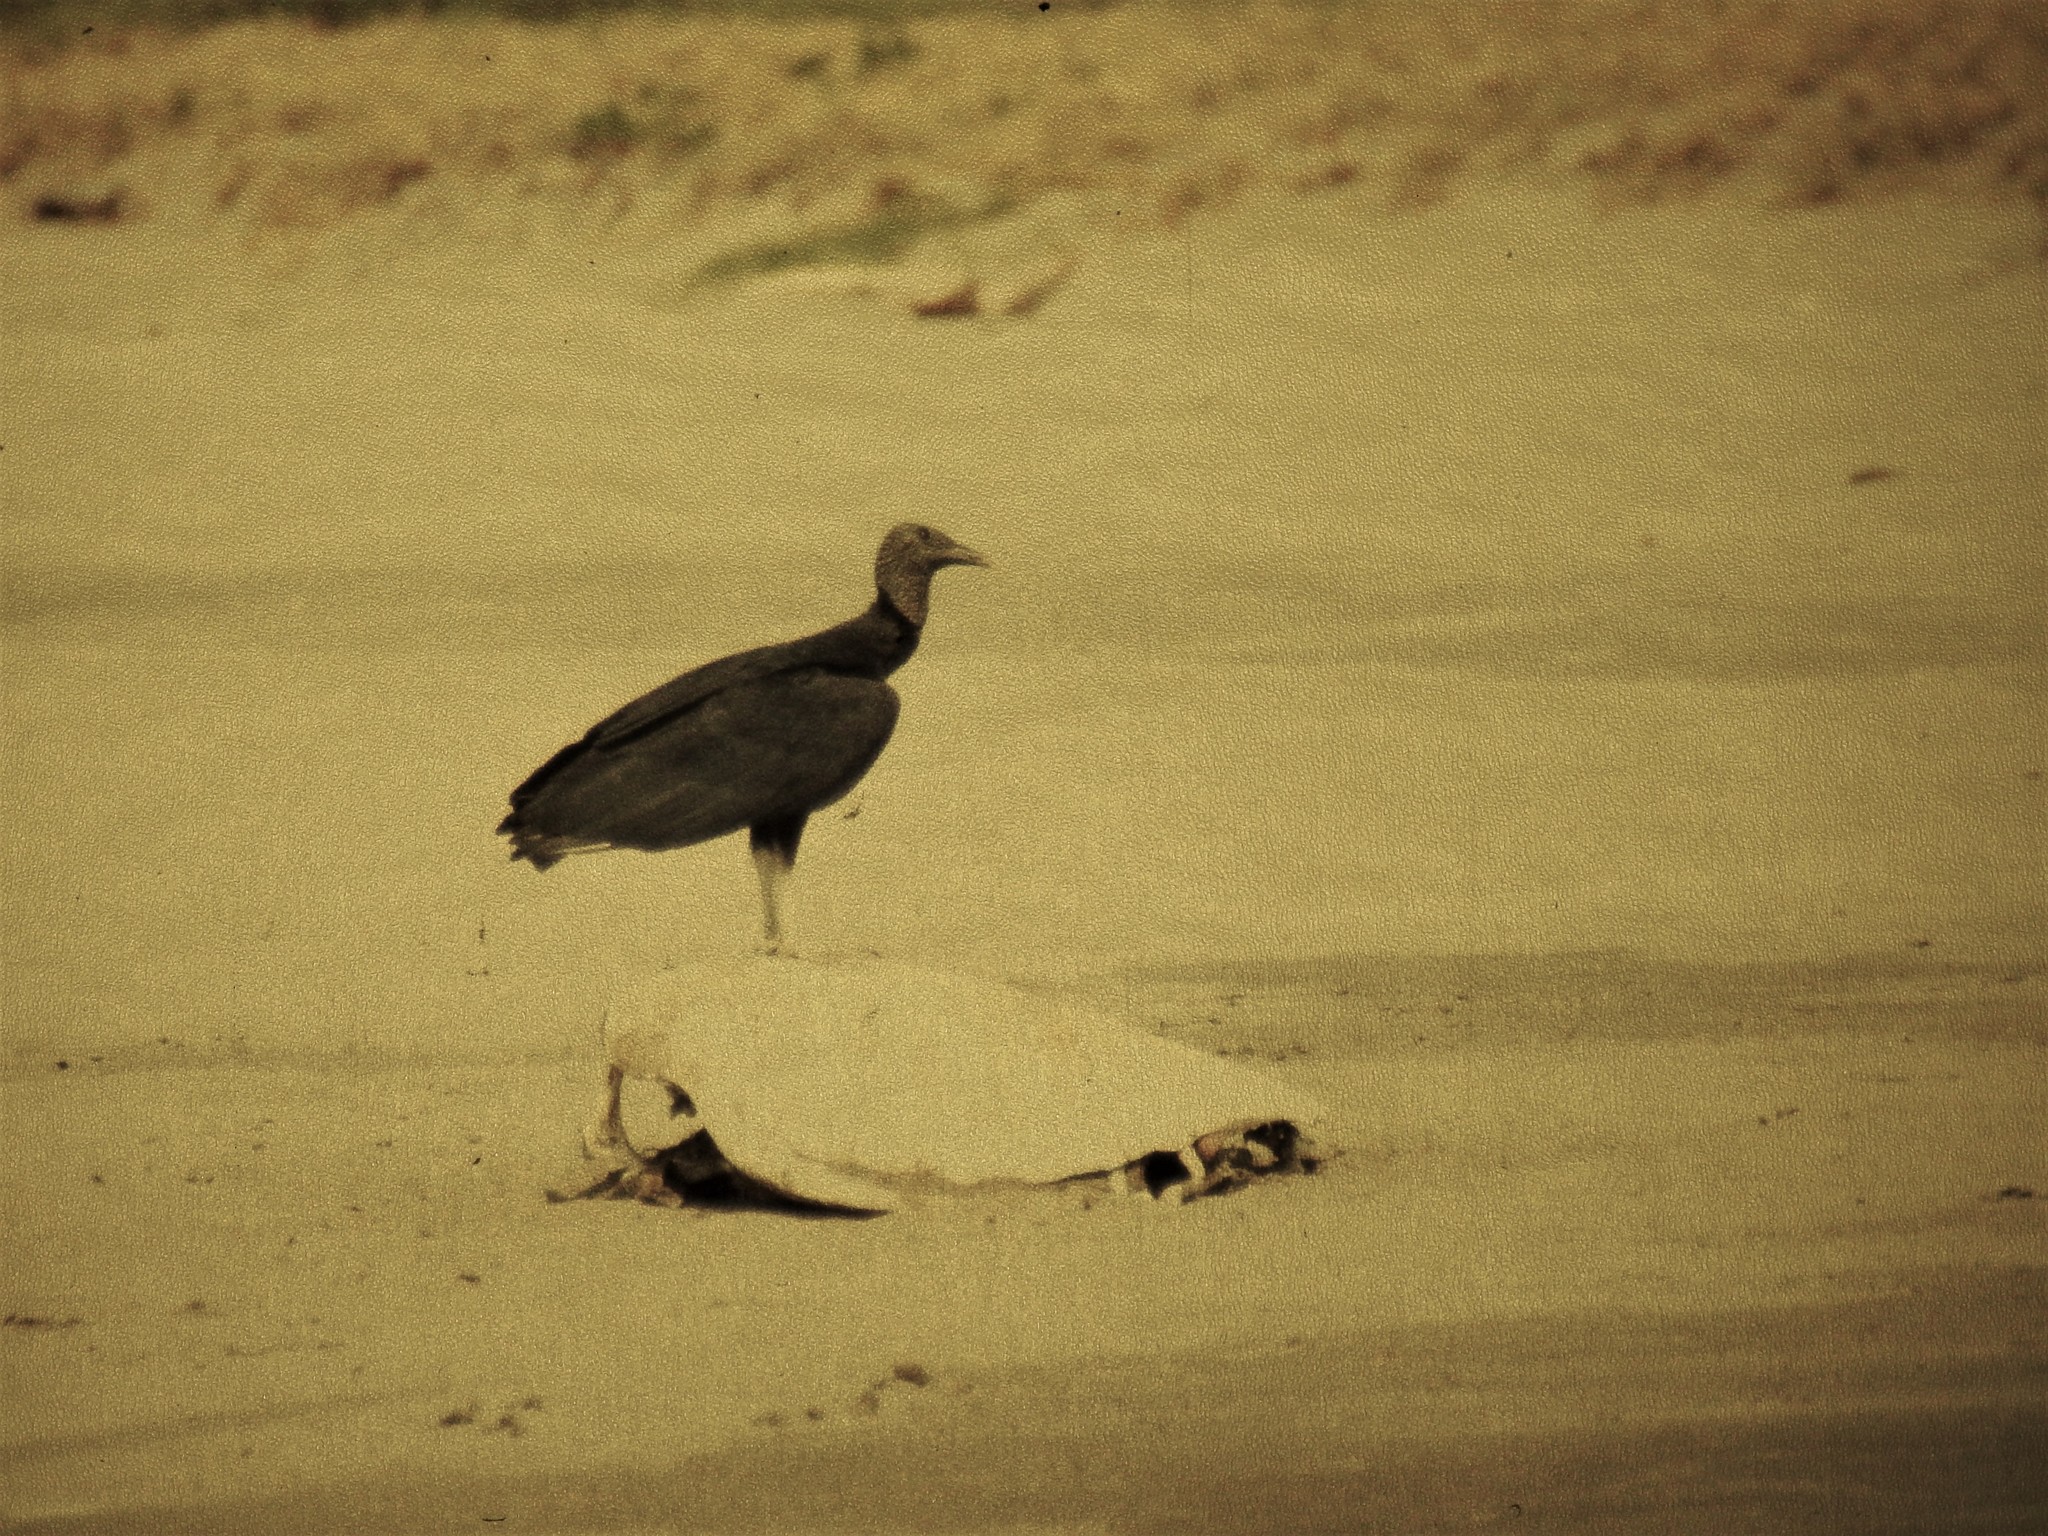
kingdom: Animalia
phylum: Chordata
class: Aves
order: Accipitriformes
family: Cathartidae
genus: Coragyps
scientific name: Coragyps atratus
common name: Black vulture
